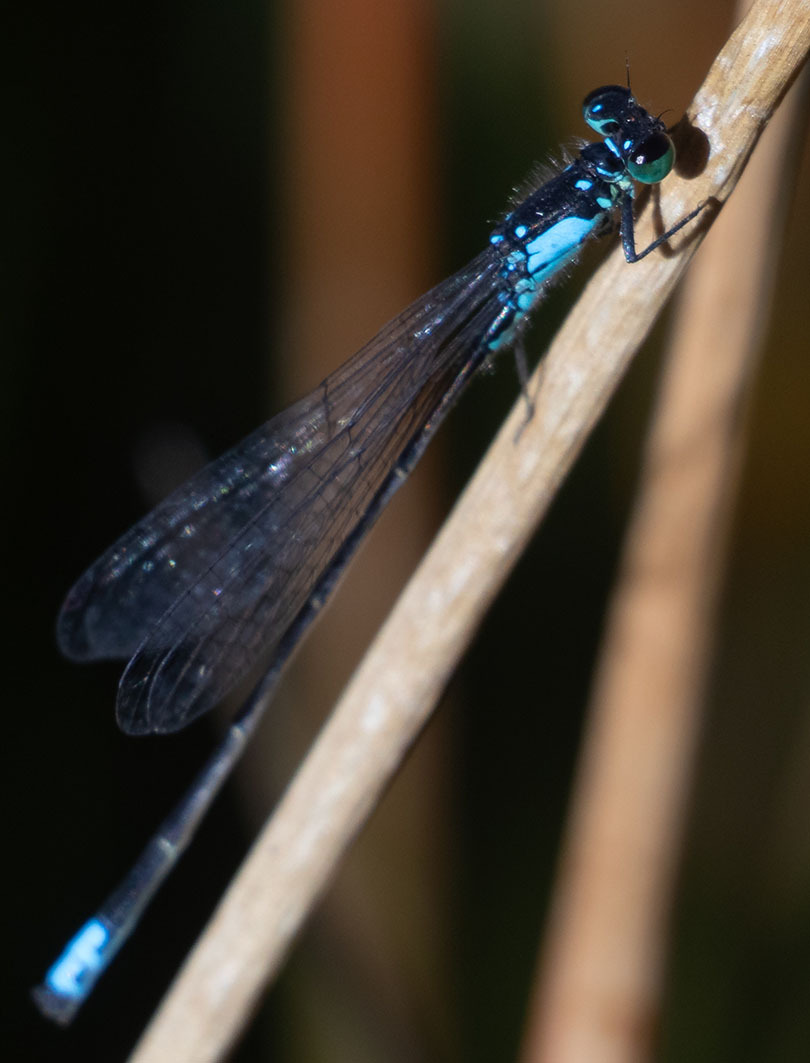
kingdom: Animalia
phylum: Arthropoda
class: Insecta
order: Odonata
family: Coenagrionidae
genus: Ischnura
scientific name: Ischnura cervula
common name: Pacific forktail
